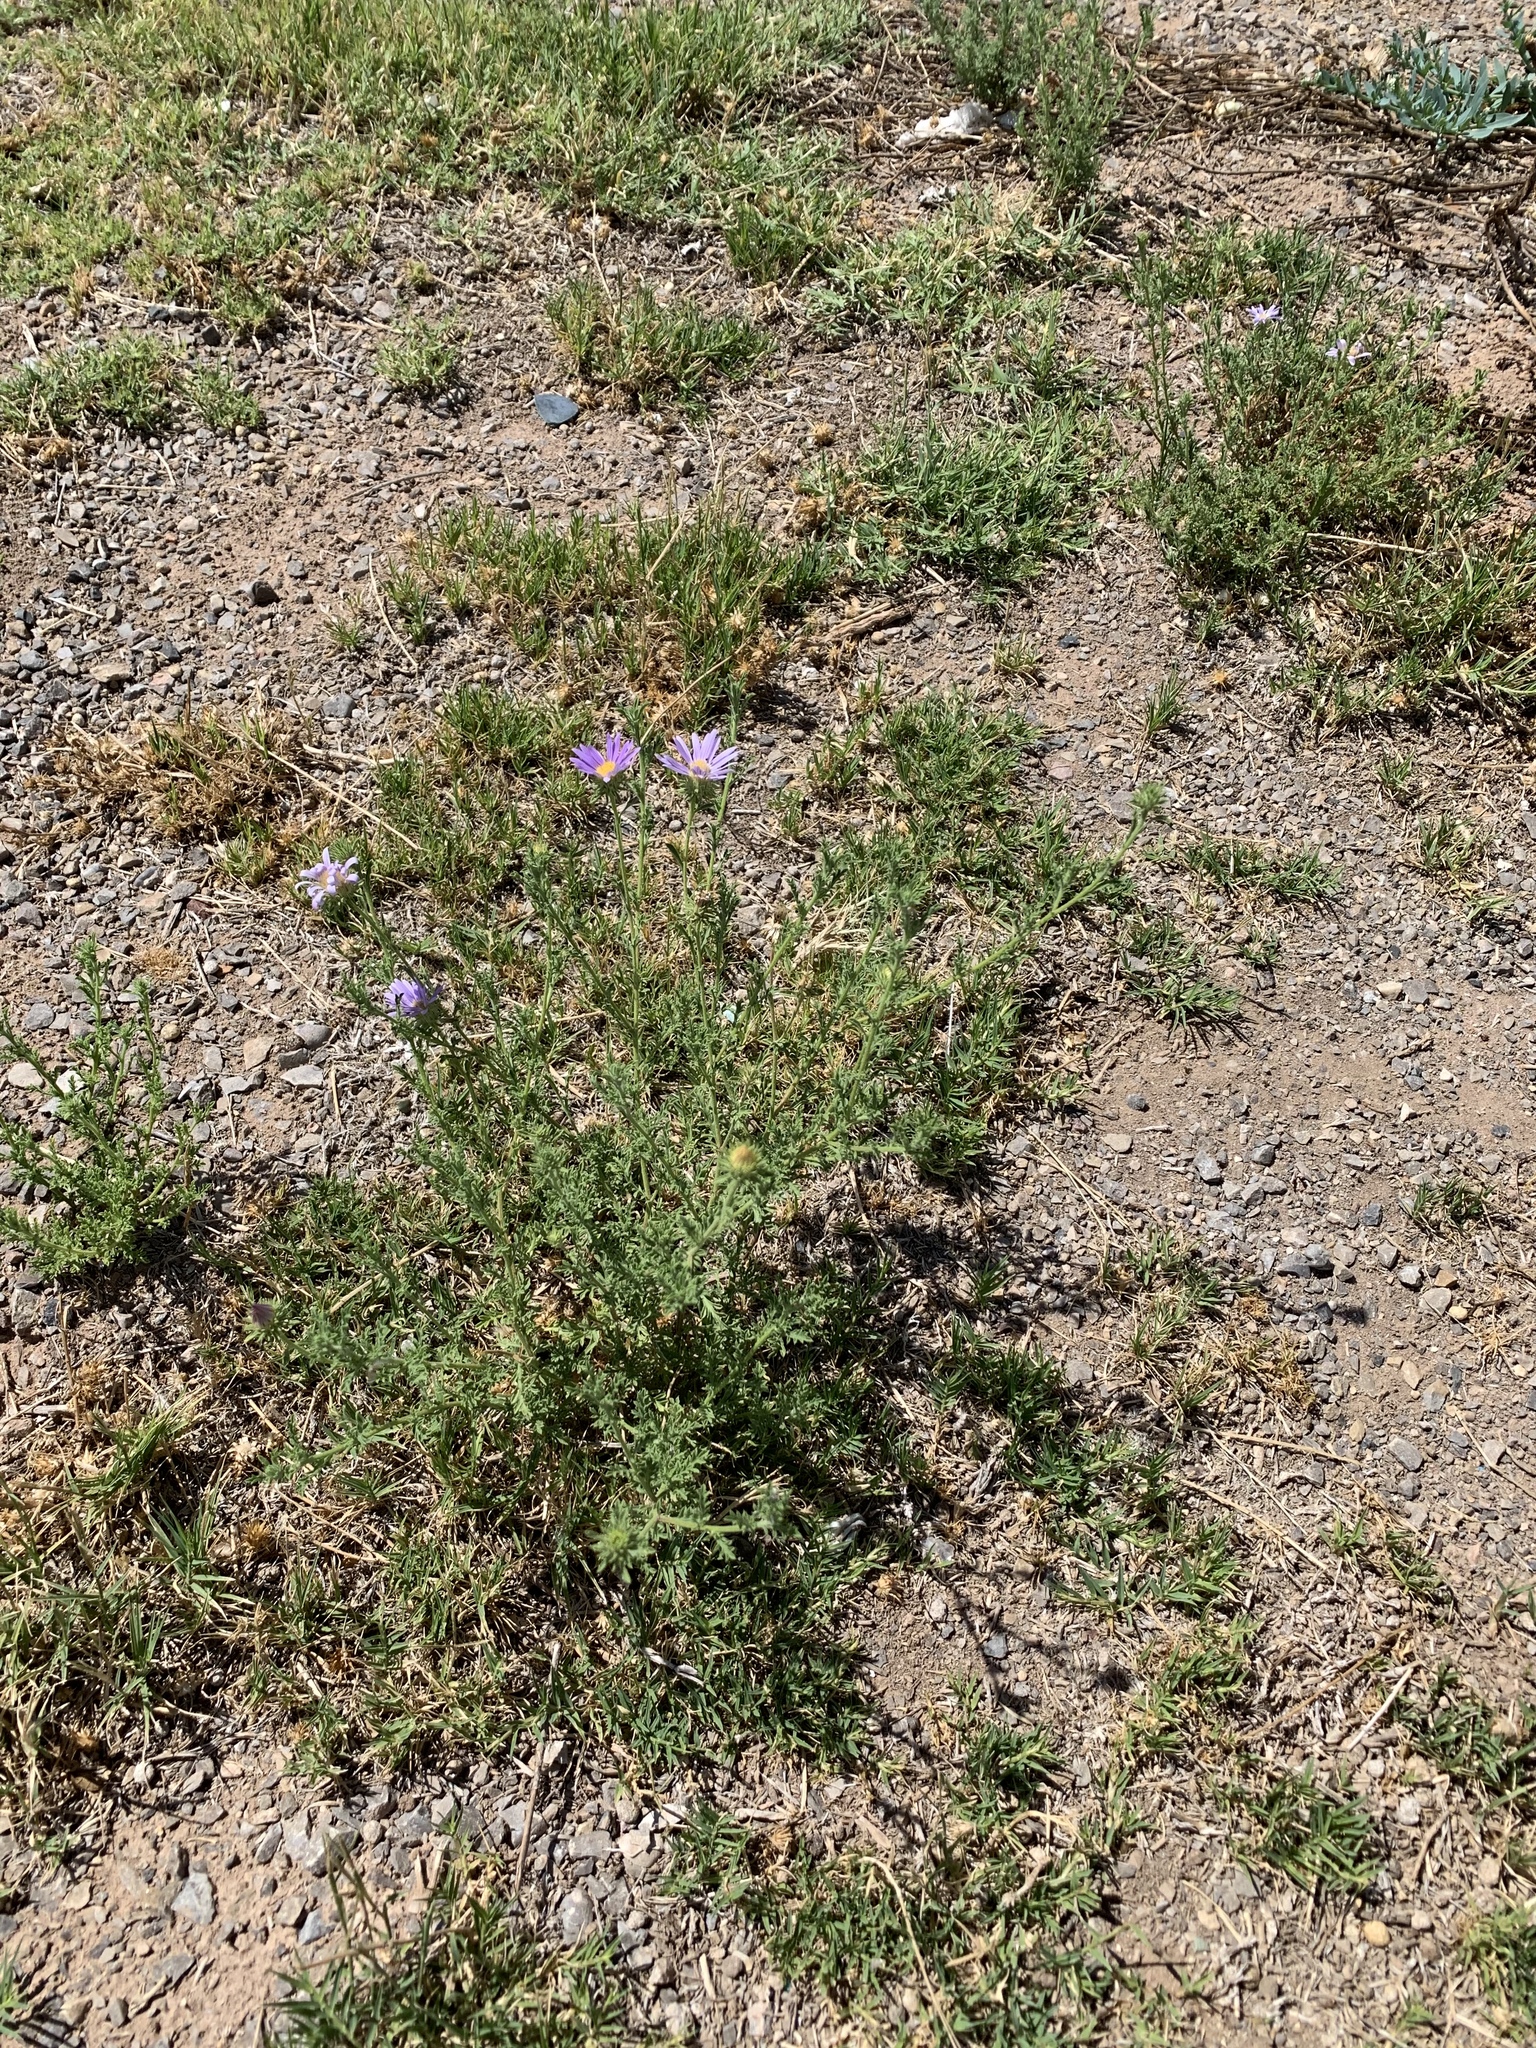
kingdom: Plantae
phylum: Tracheophyta
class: Magnoliopsida
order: Asterales
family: Asteraceae
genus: Machaeranthera
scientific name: Machaeranthera tanacetifolia
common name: Tansy-aster
